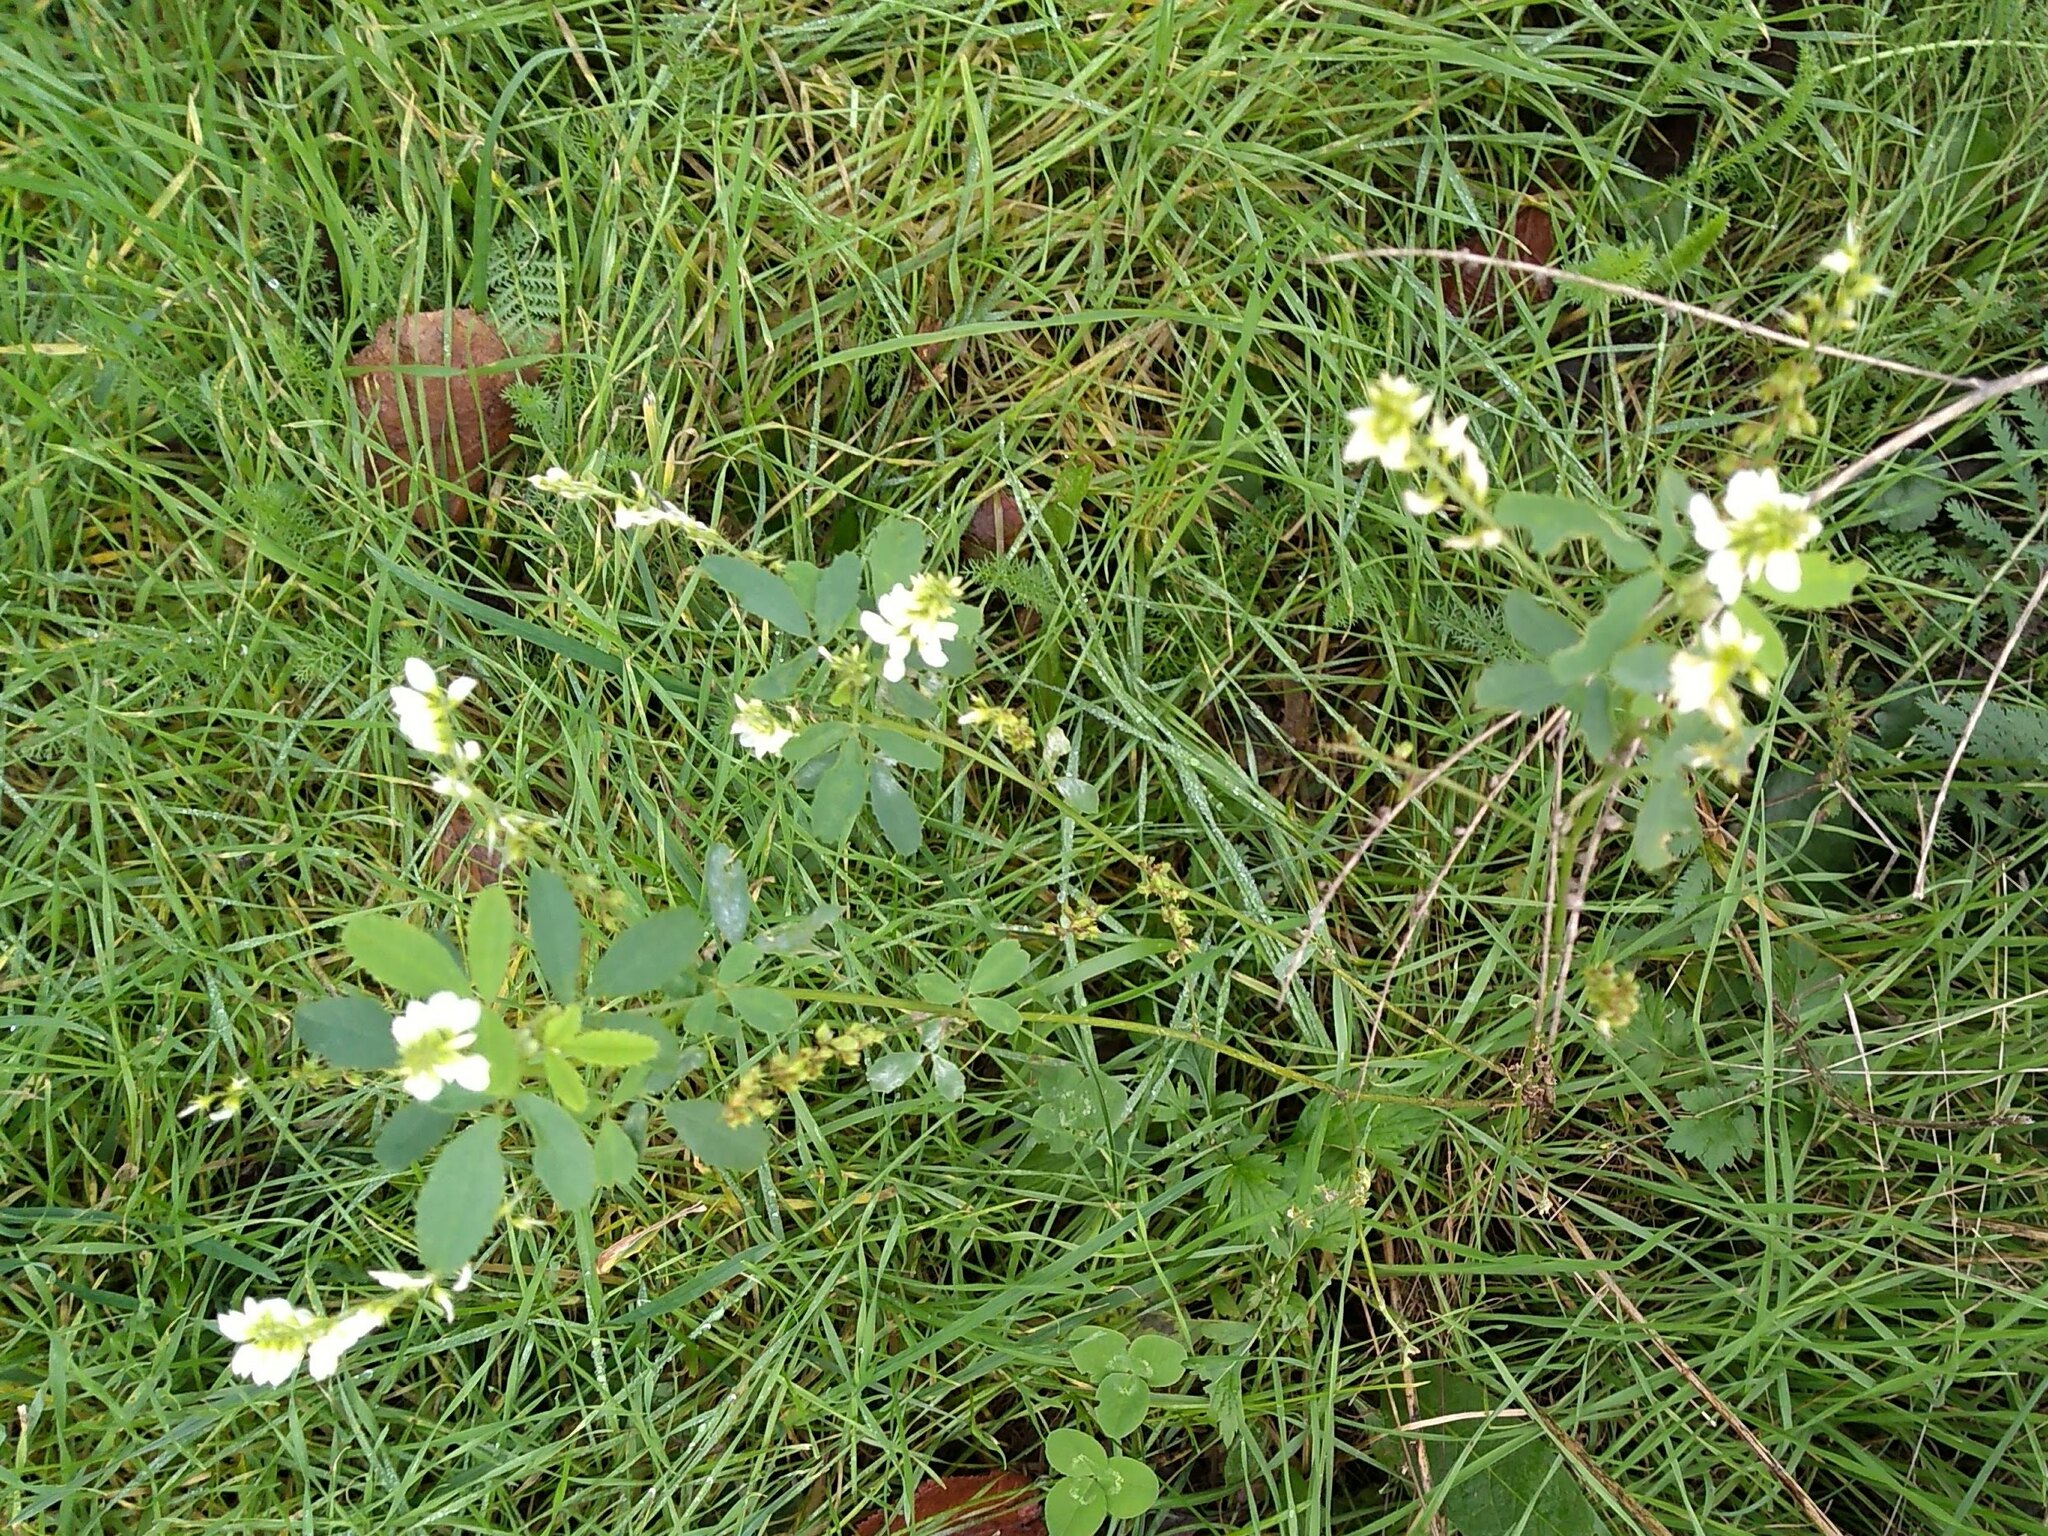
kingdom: Plantae
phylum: Tracheophyta
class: Magnoliopsida
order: Fabales
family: Fabaceae
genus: Melilotus
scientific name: Melilotus albus
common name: White melilot
